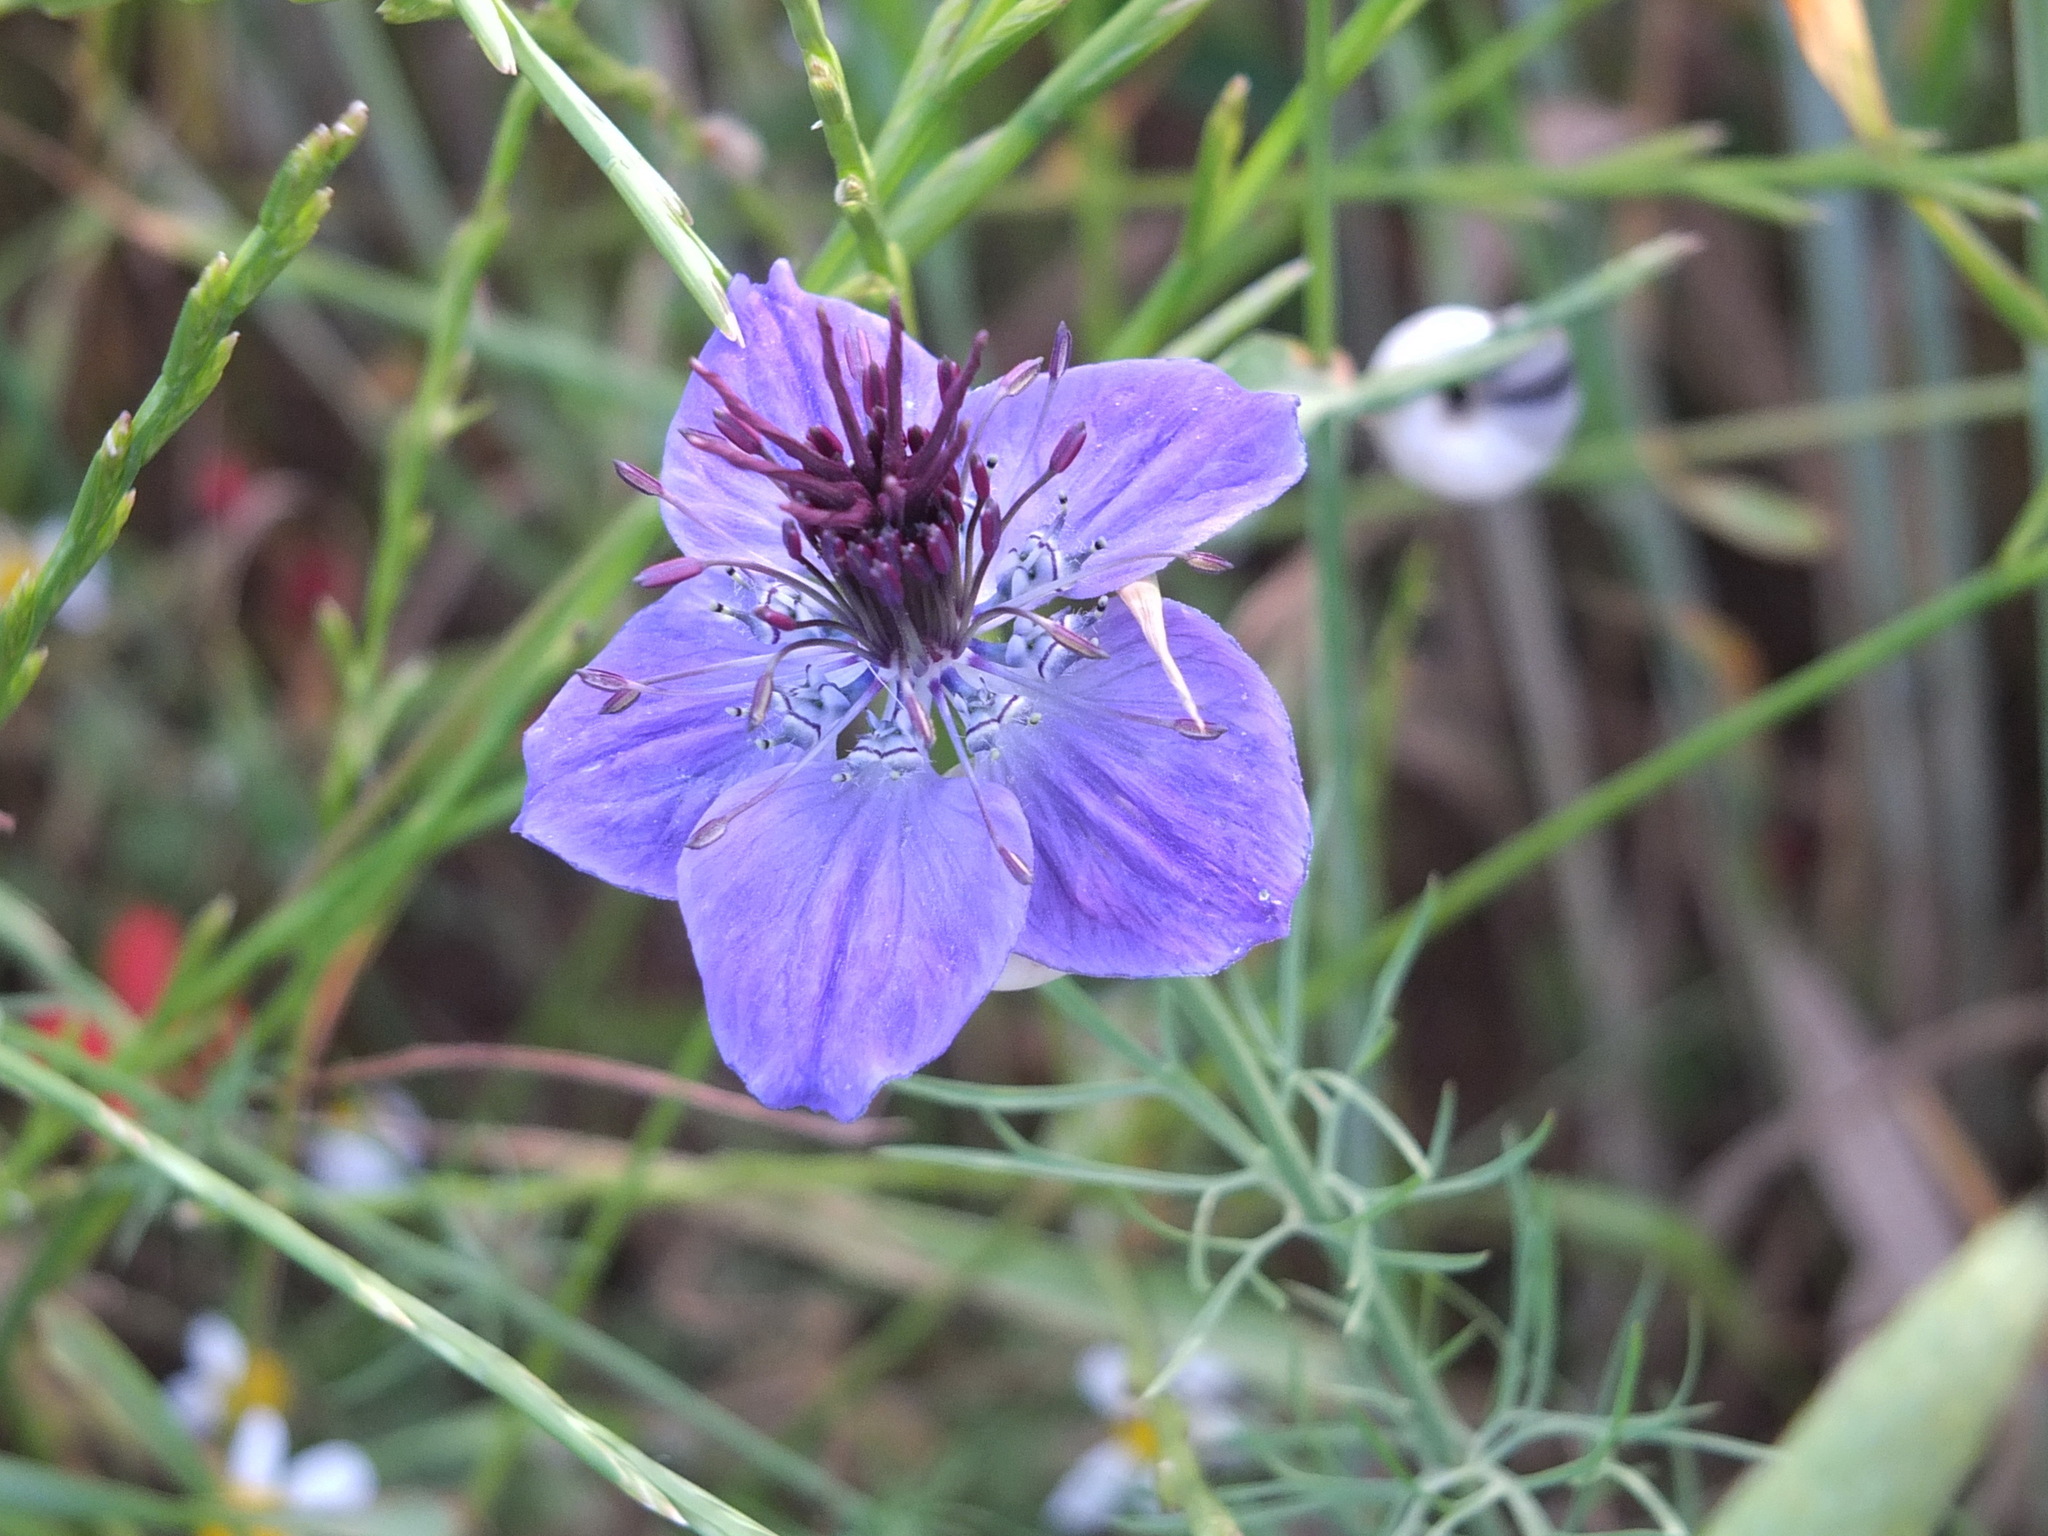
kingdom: Plantae
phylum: Tracheophyta
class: Magnoliopsida
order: Ranunculales
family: Ranunculaceae
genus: Nigella
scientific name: Nigella damascena
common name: Love-in-a-mist
